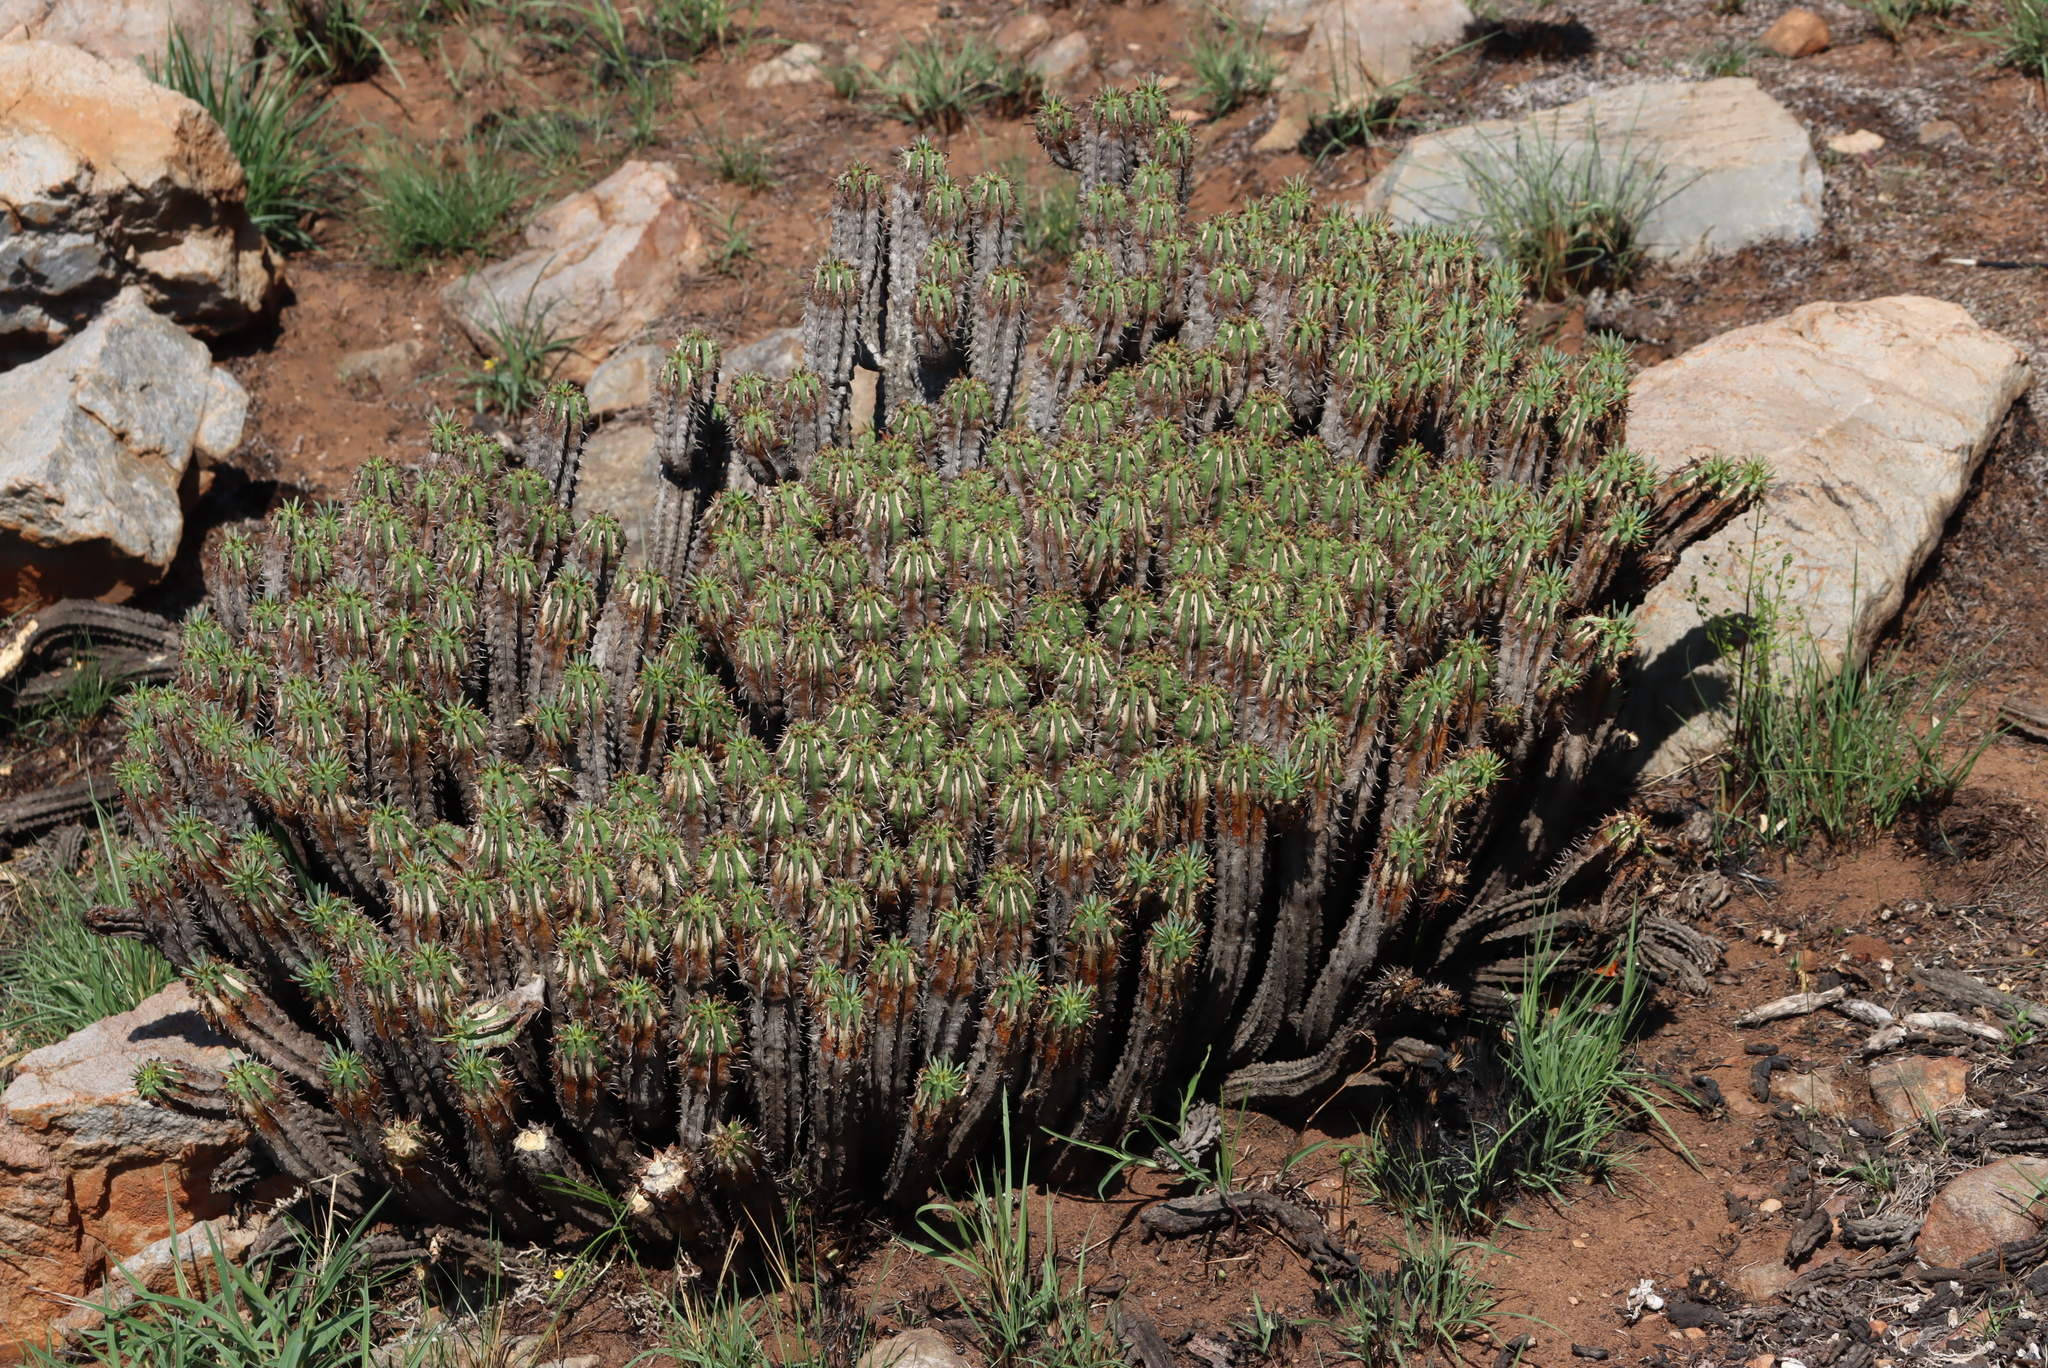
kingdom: Plantae
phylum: Tracheophyta
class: Magnoliopsida
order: Malpighiales
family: Euphorbiaceae
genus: Euphorbia
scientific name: Euphorbia pulvinata
